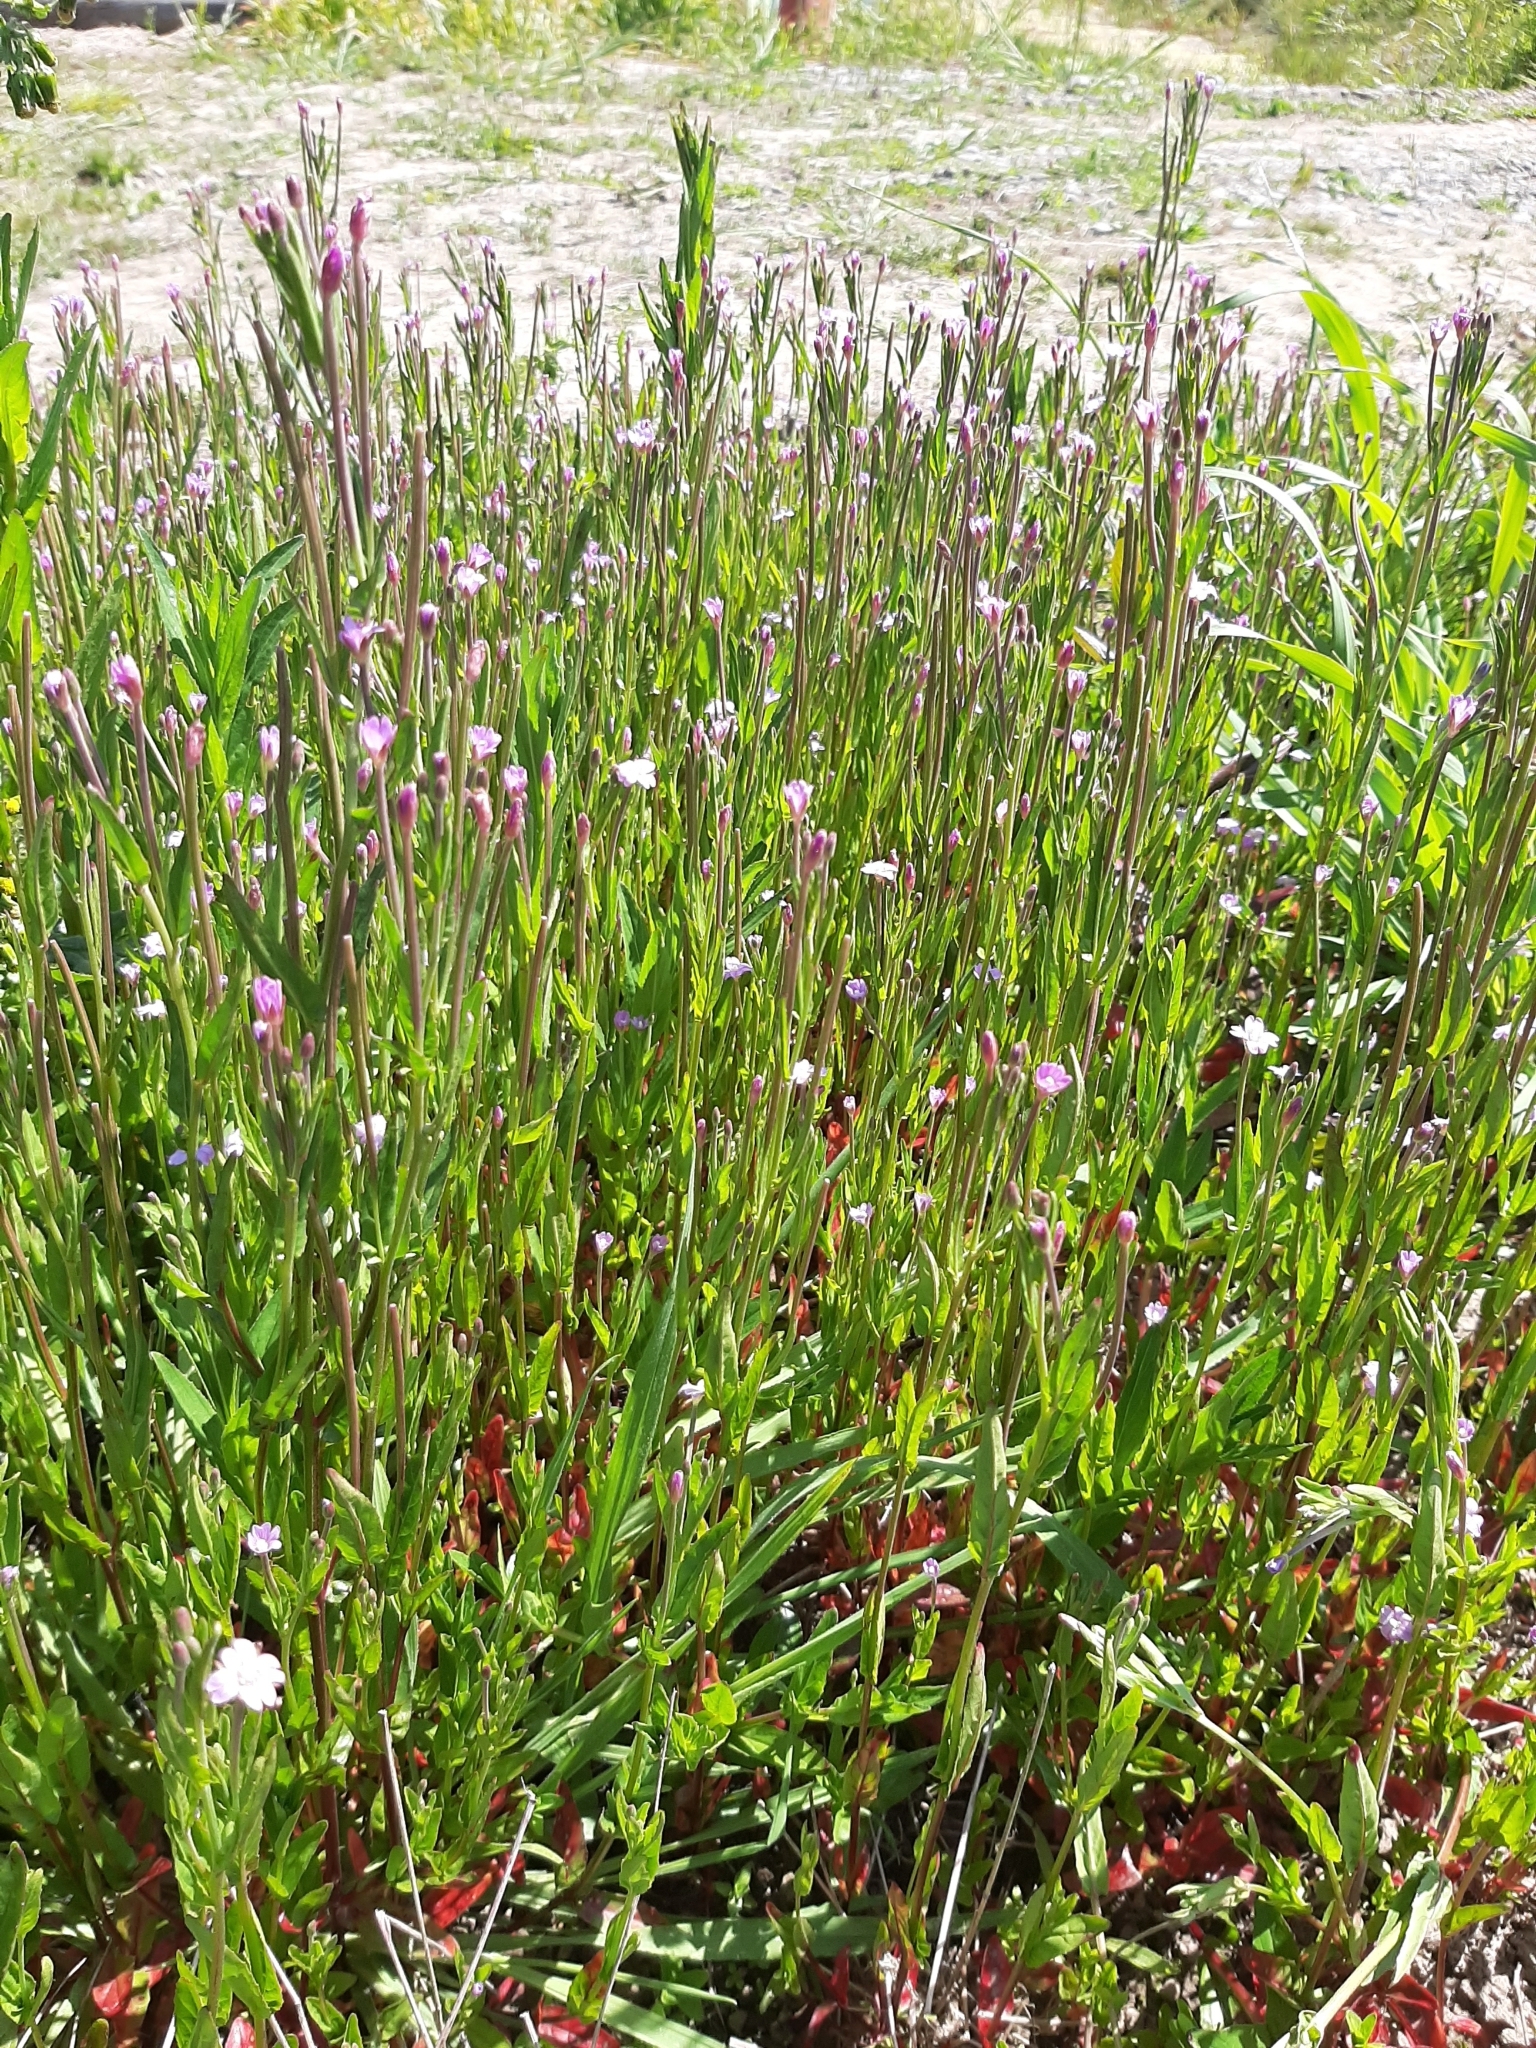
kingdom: Plantae
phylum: Tracheophyta
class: Magnoliopsida
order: Myrtales
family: Onagraceae
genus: Epilobium
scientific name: Epilobium ciliatum
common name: American willowherb
